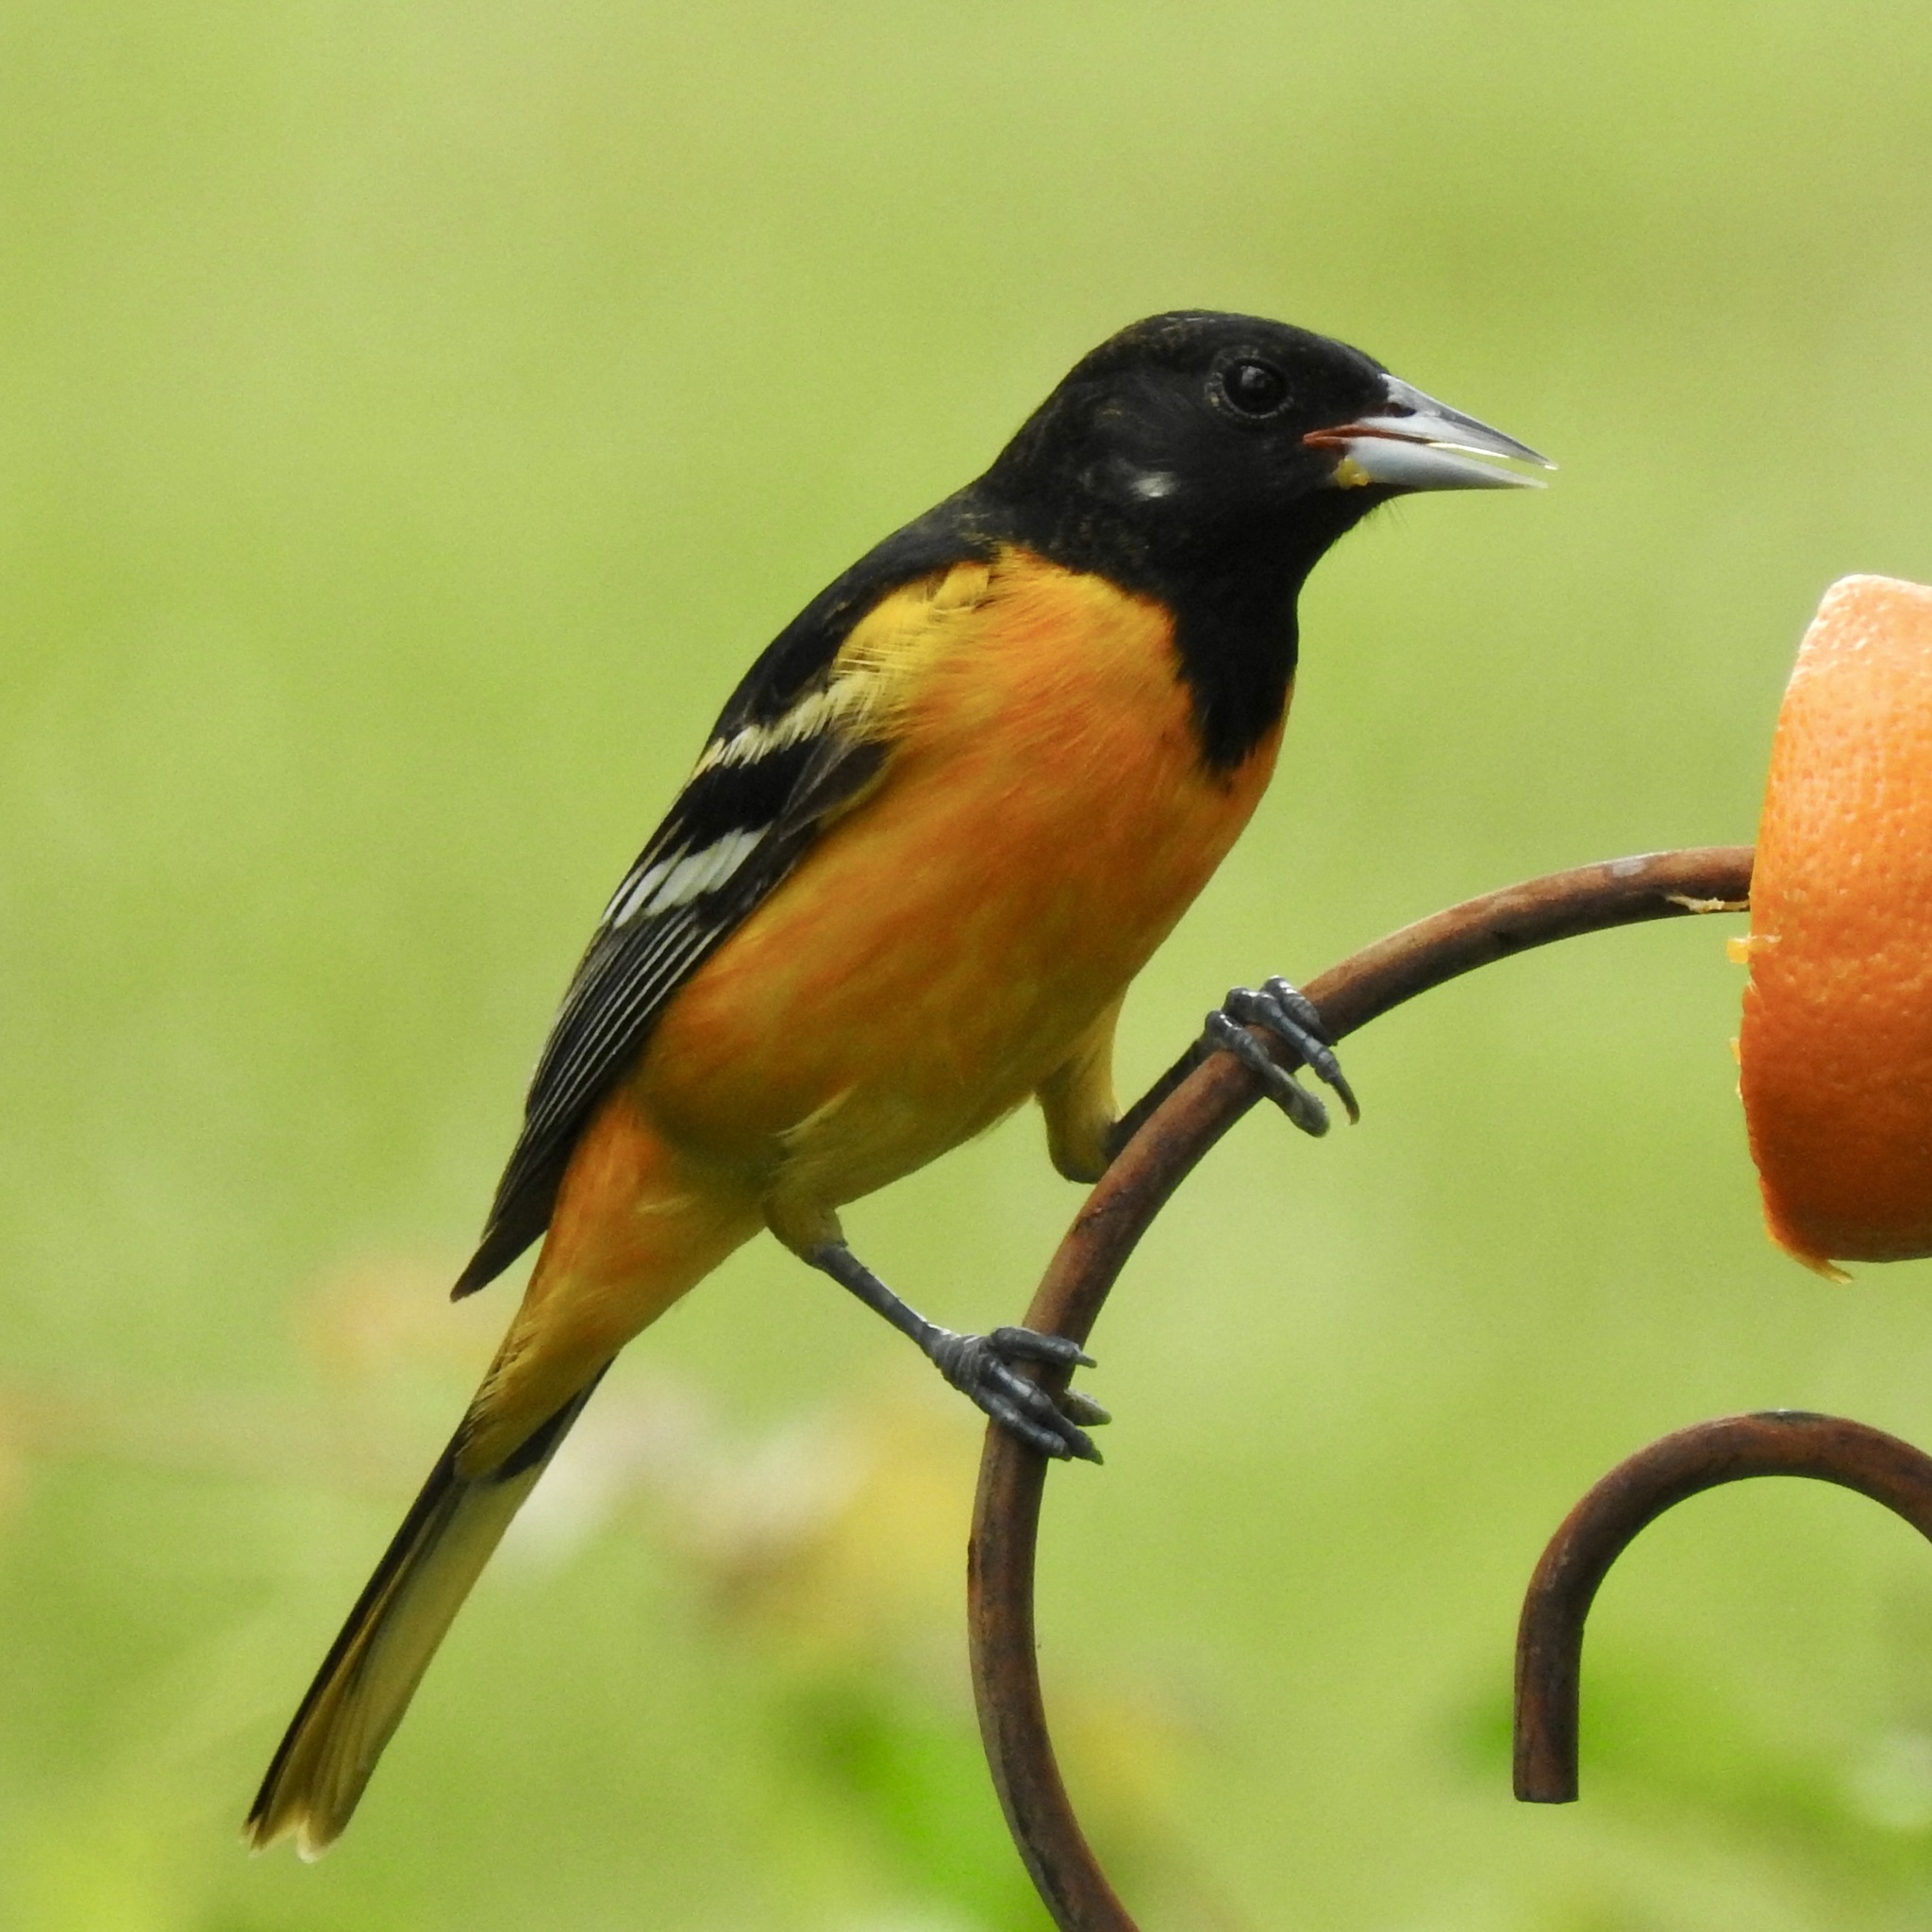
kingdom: Animalia
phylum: Chordata
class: Aves
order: Passeriformes
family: Icteridae
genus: Icterus
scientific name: Icterus galbula
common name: Baltimore oriole
